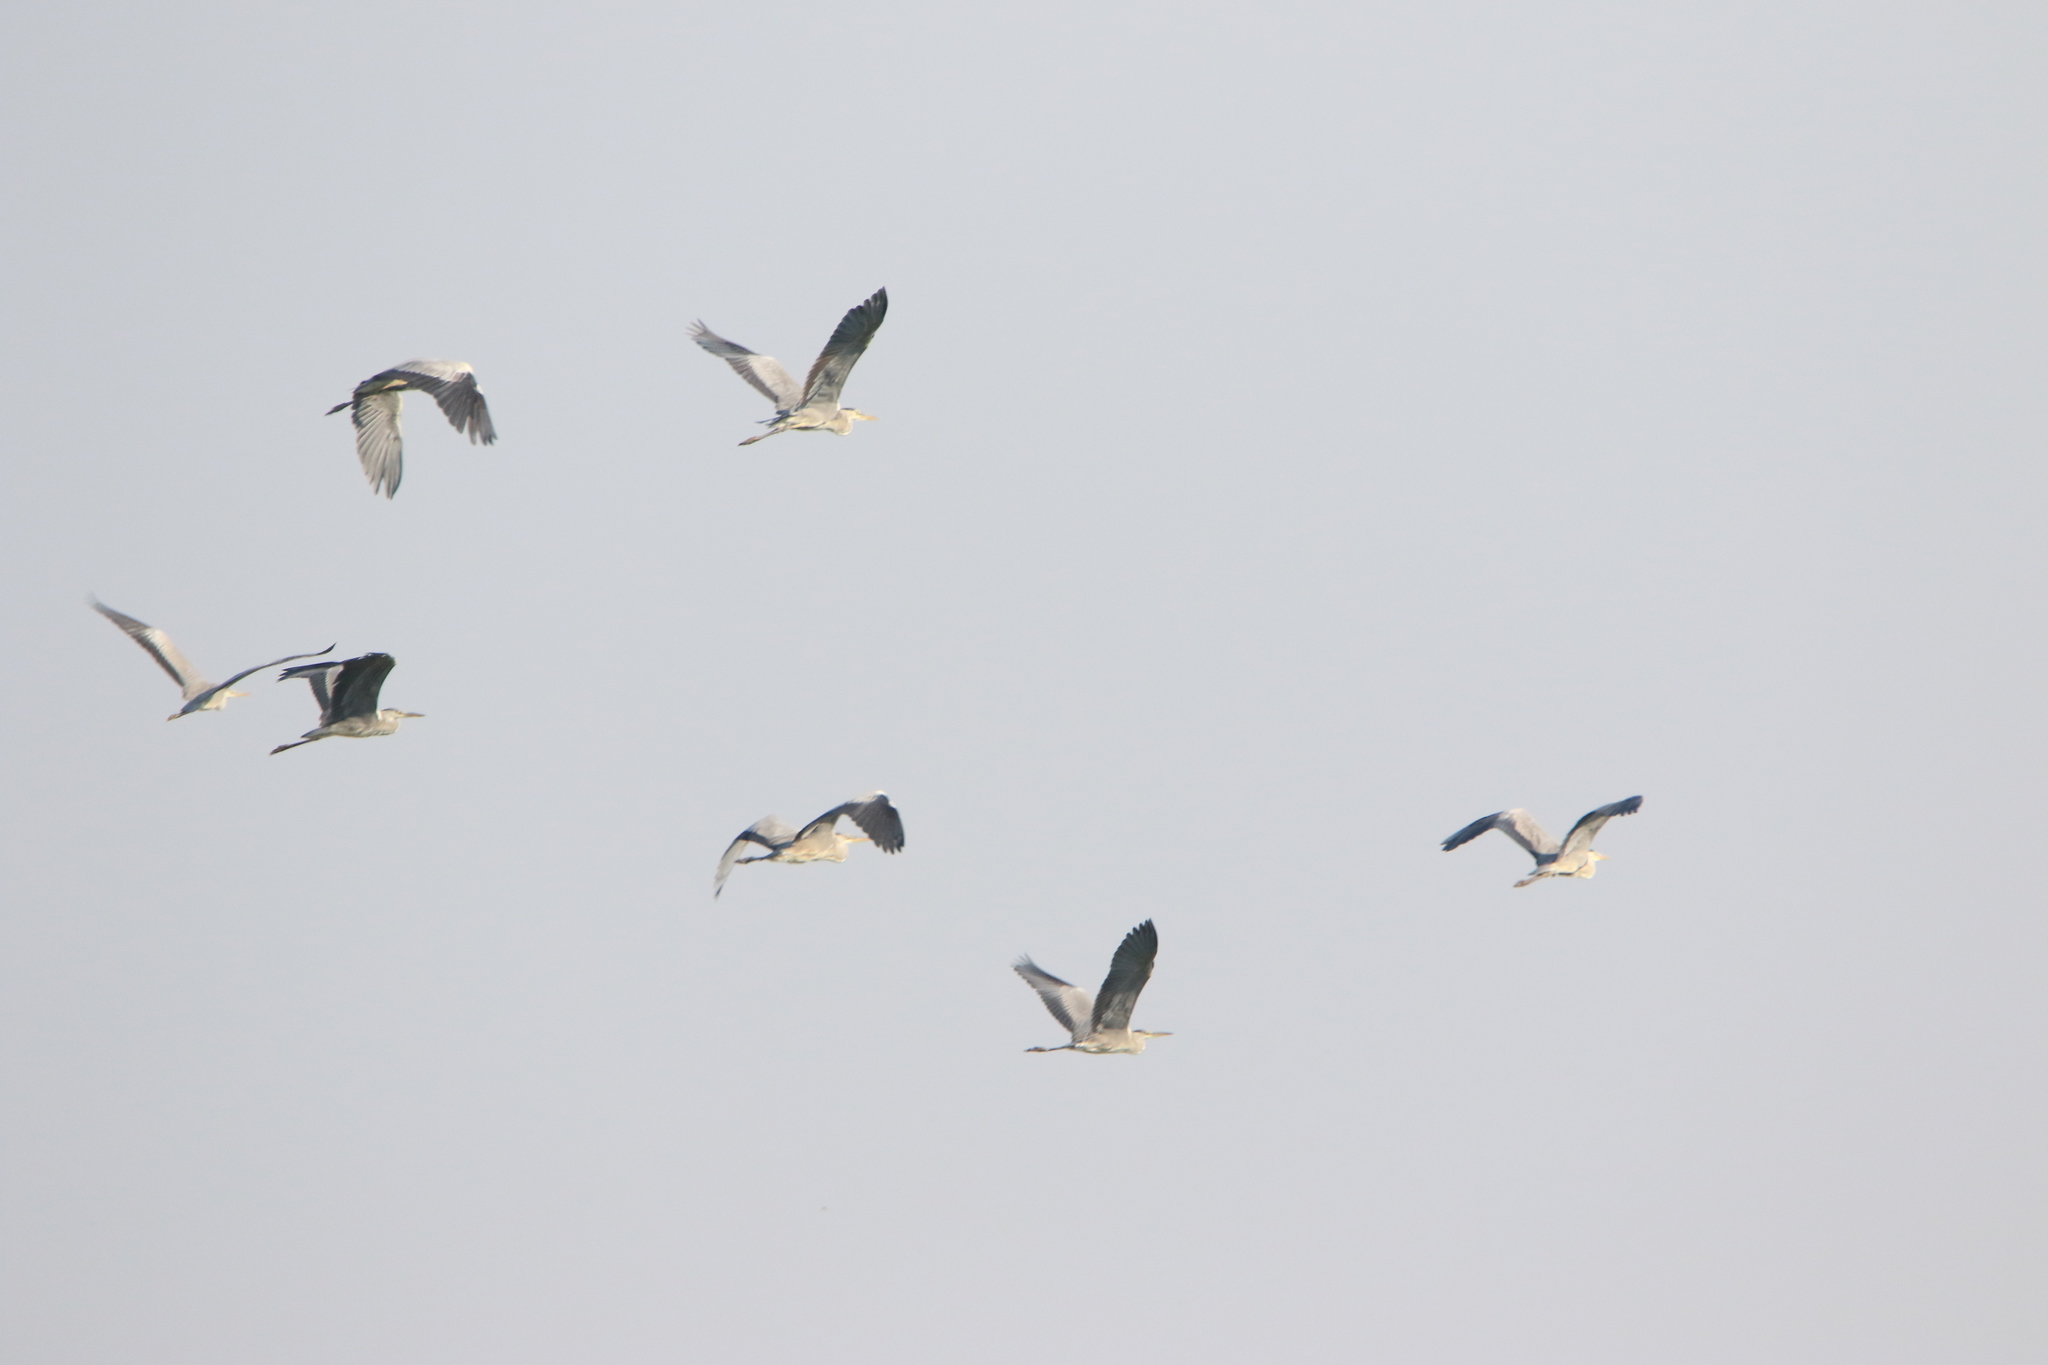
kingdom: Animalia
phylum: Chordata
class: Aves
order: Pelecaniformes
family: Ardeidae
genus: Ardea
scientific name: Ardea cinerea
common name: Grey heron
